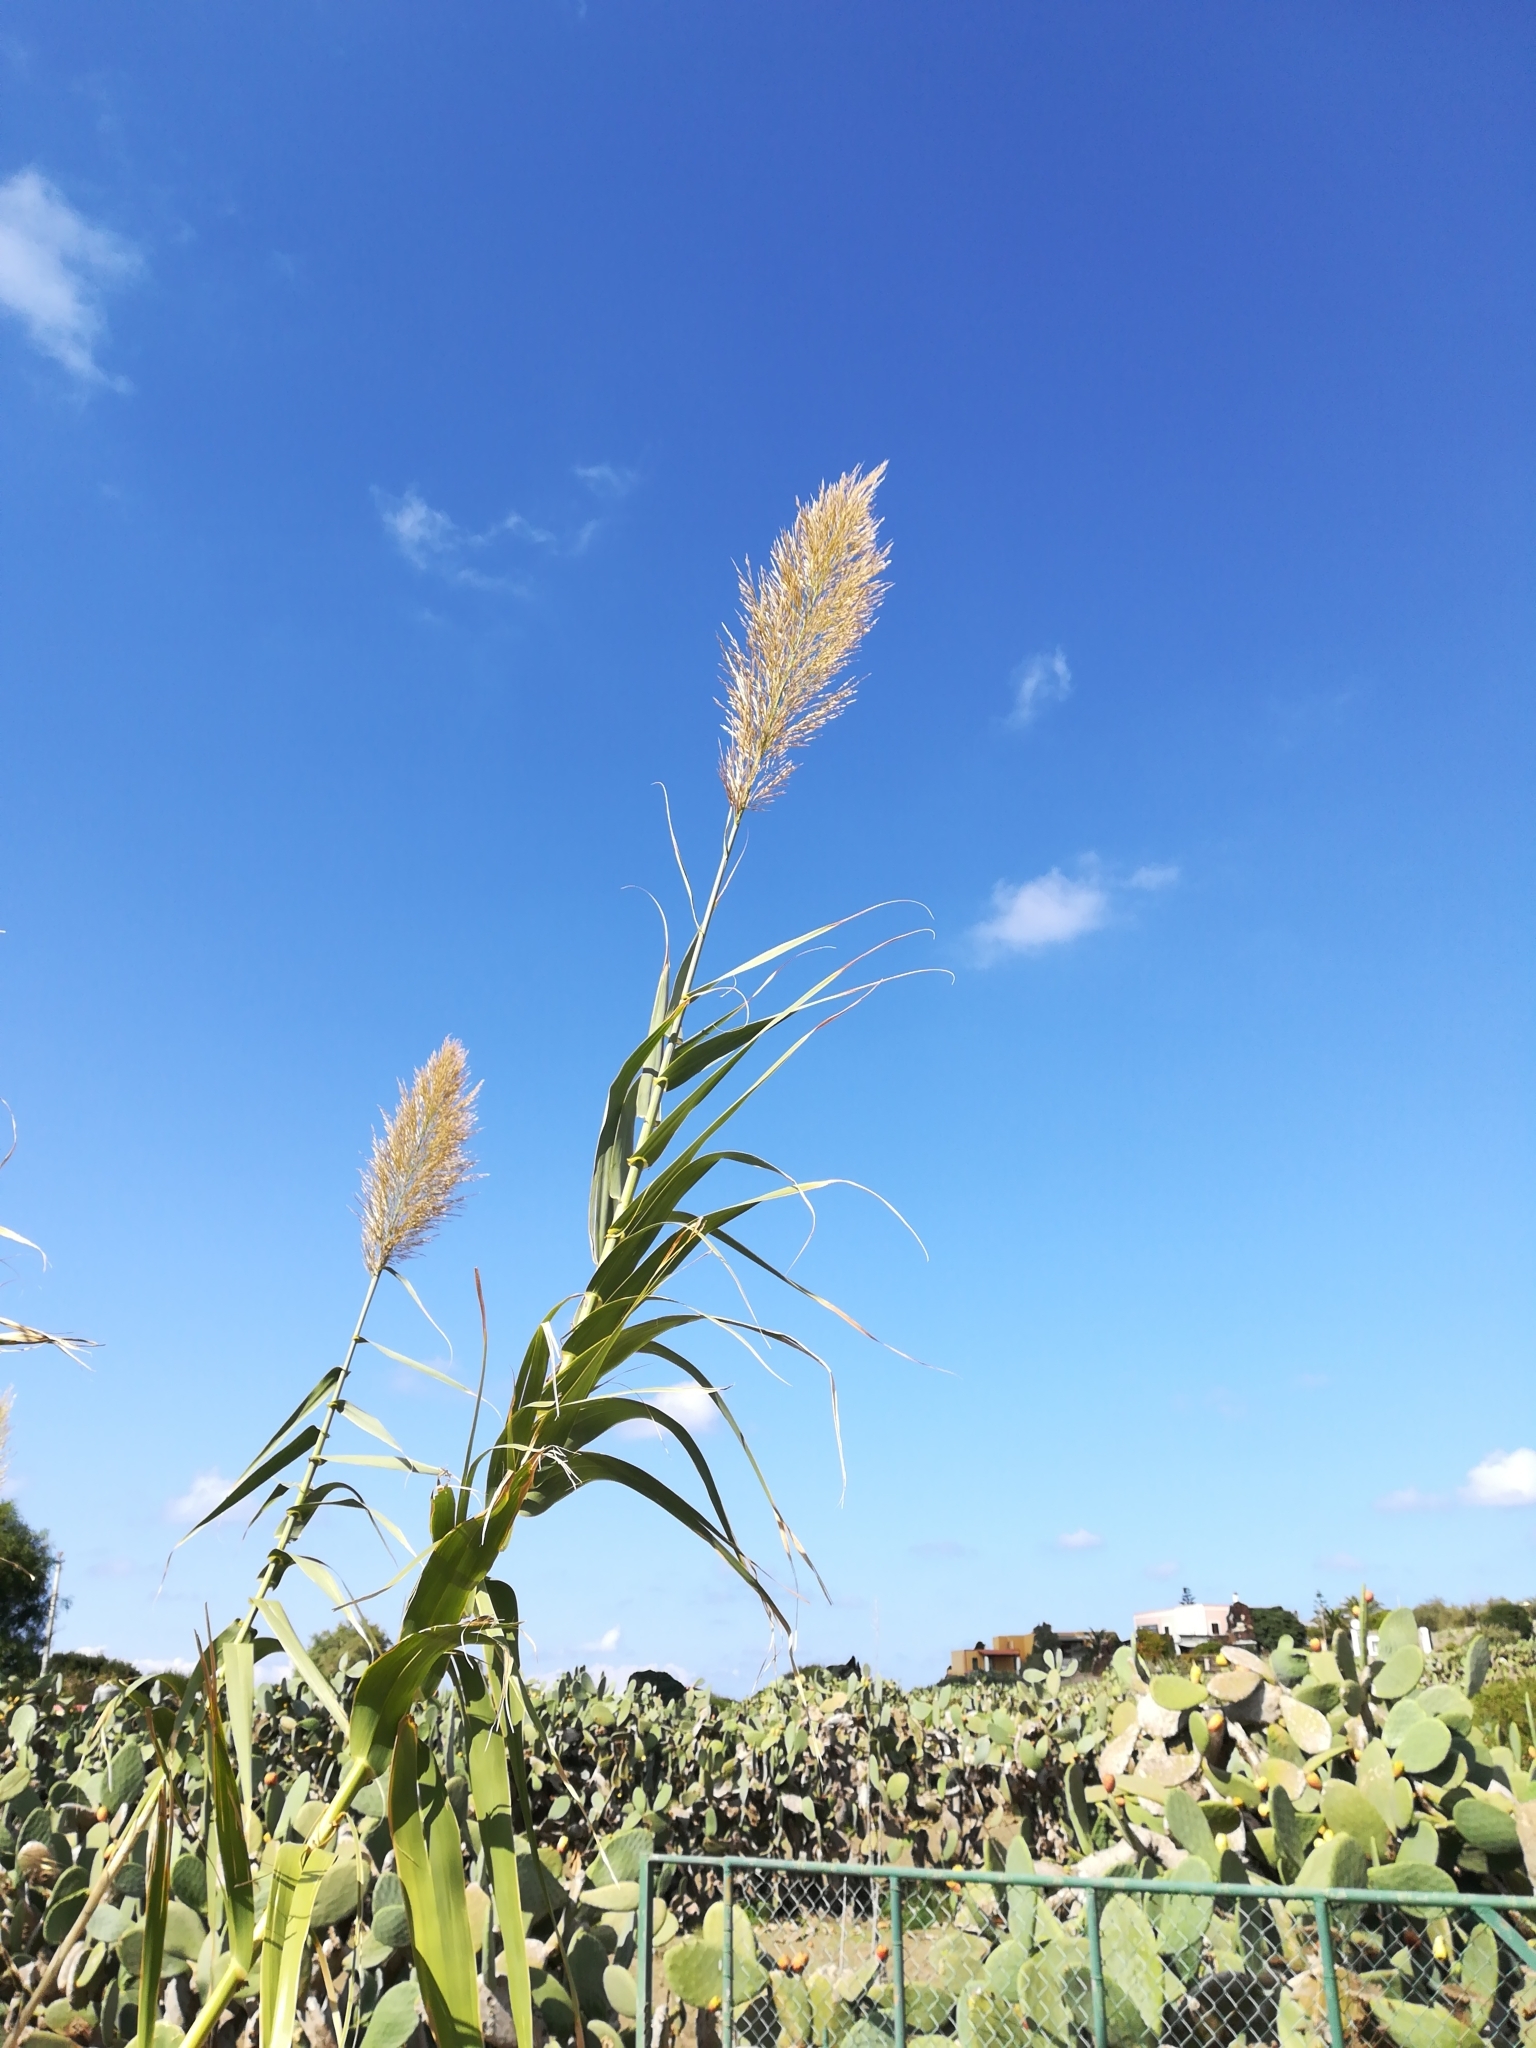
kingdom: Plantae
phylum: Tracheophyta
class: Liliopsida
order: Poales
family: Poaceae
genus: Arundo
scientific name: Arundo donax
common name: Giant reed
